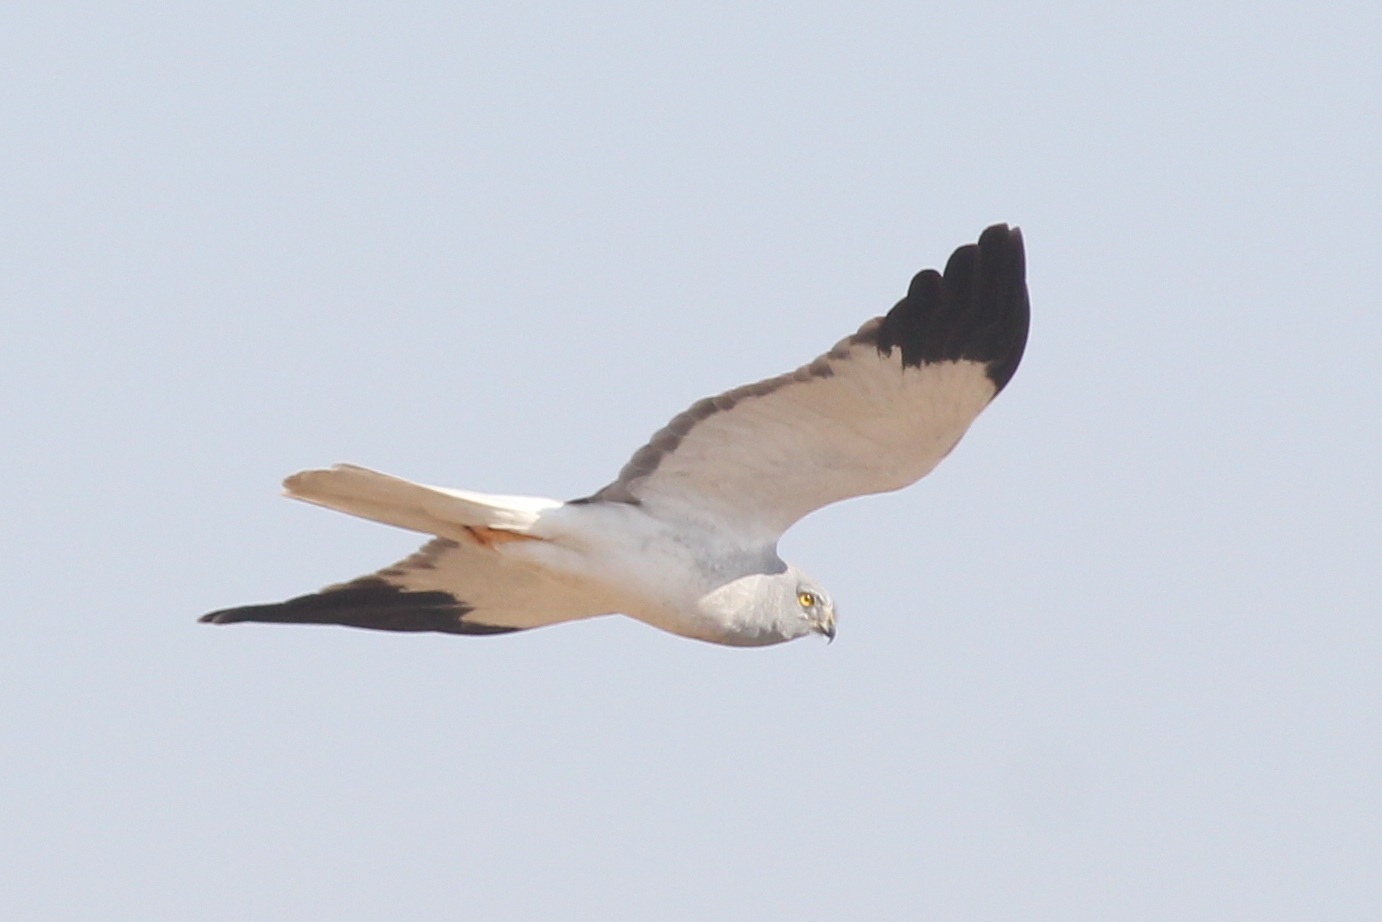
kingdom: Animalia
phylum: Chordata
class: Aves
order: Accipitriformes
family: Accipitridae
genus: Circus
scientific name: Circus cyaneus
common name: Hen harrier
